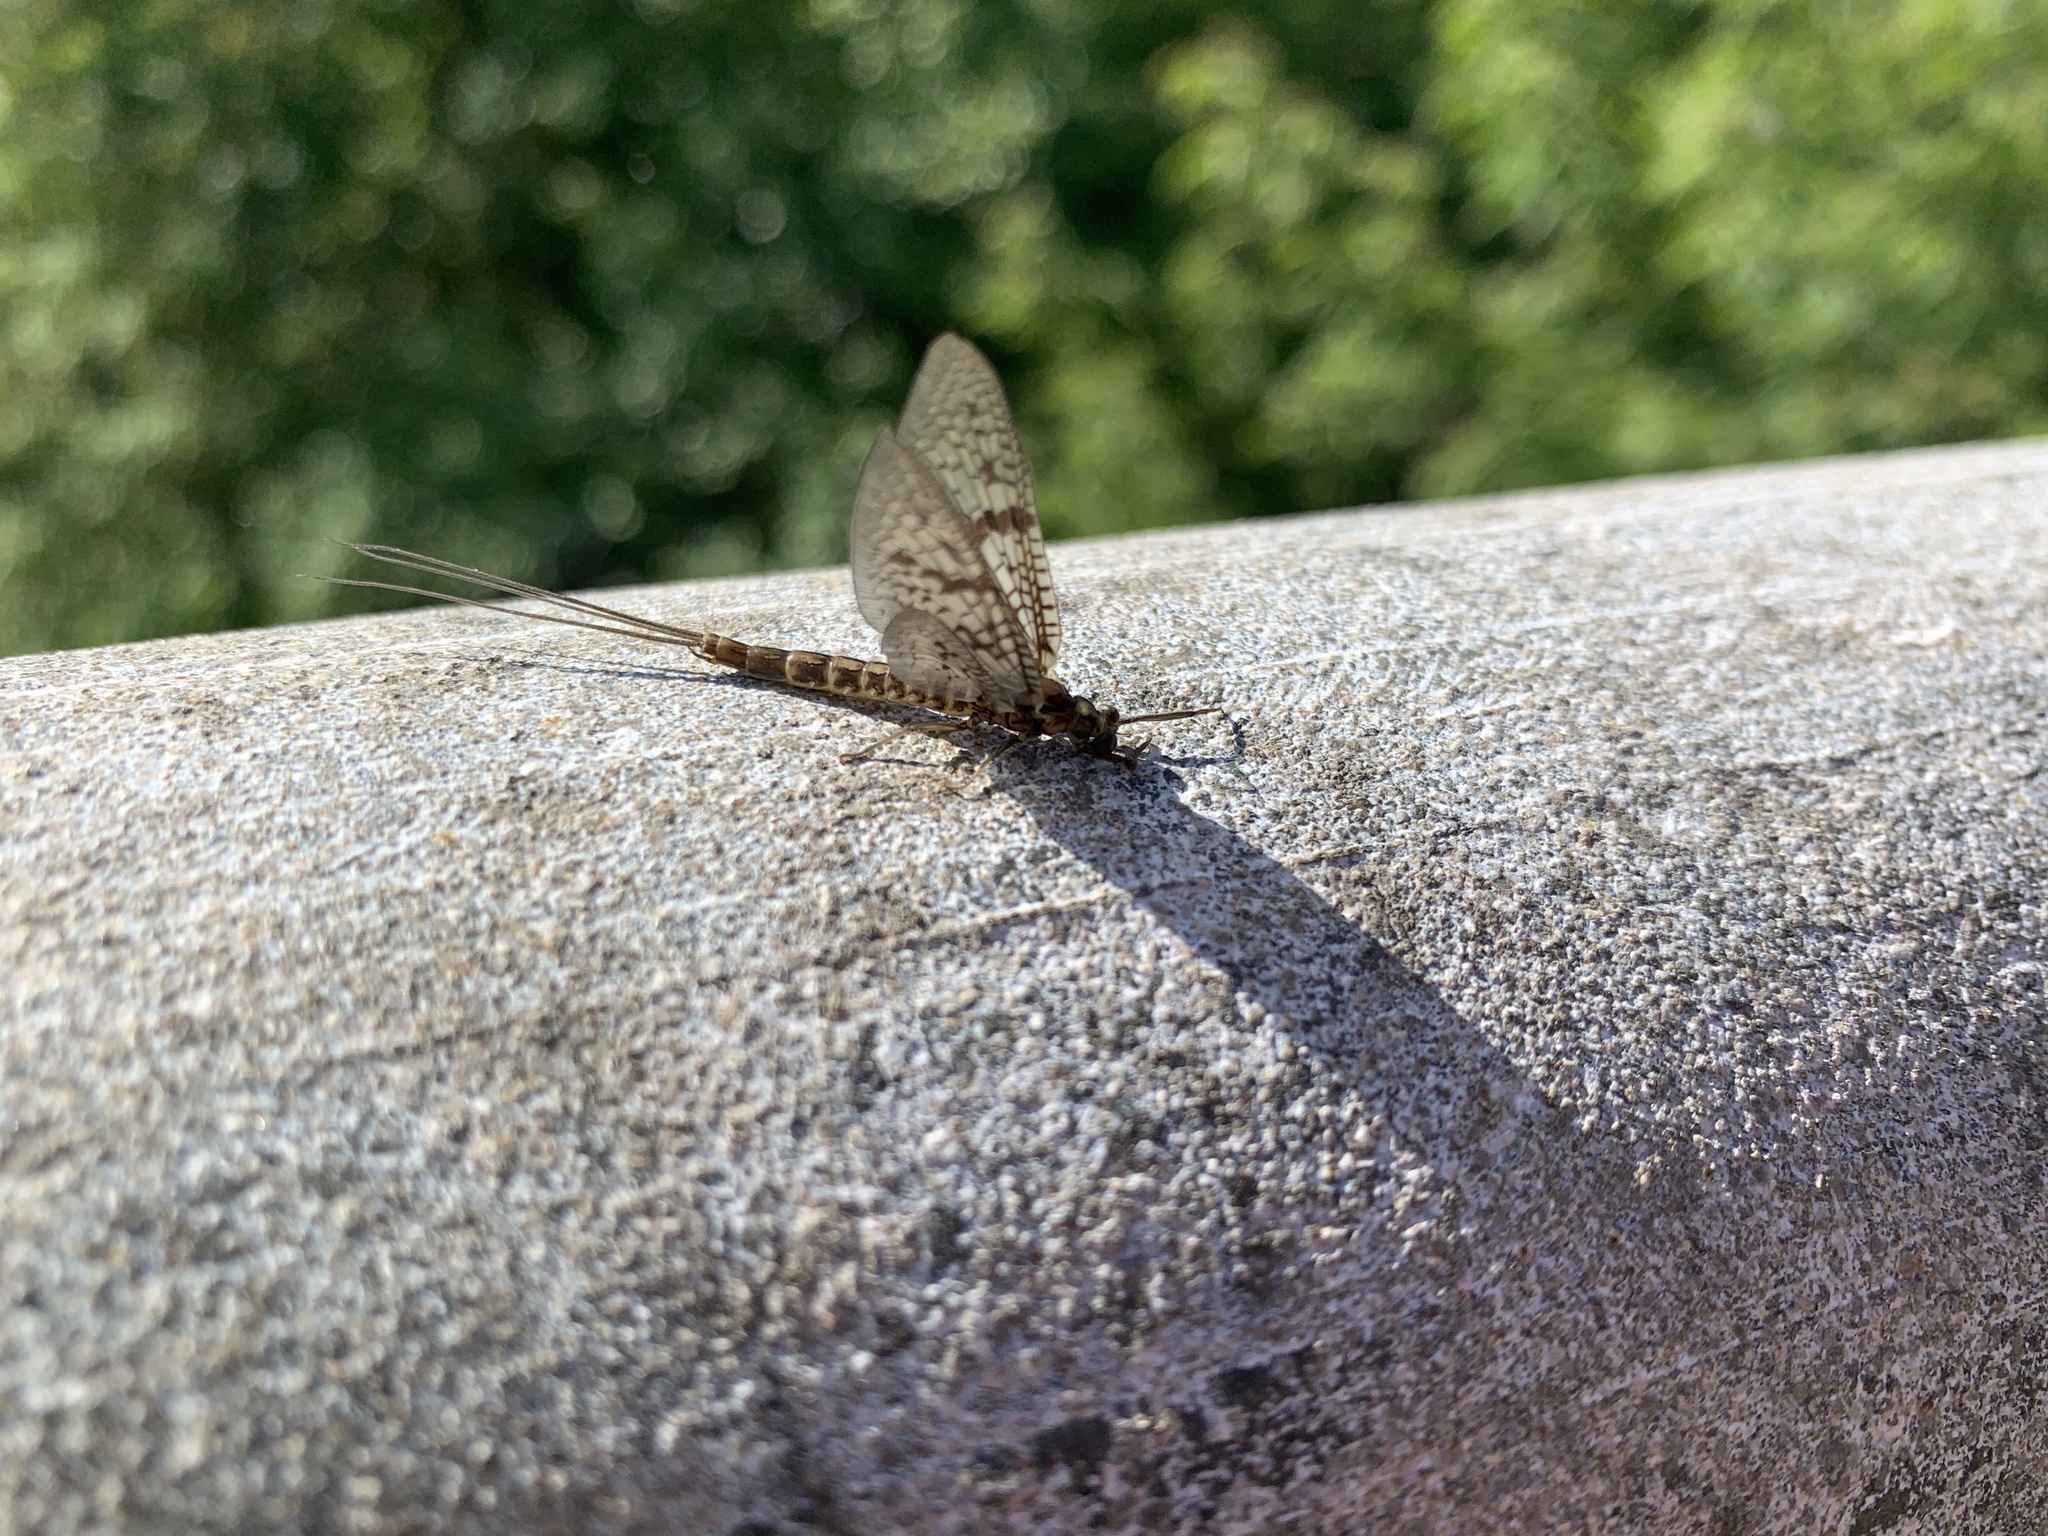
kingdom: Animalia
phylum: Arthropoda
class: Insecta
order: Ephemeroptera
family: Ephemeridae
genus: Ephemera
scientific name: Ephemera simulans
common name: Brown drake
